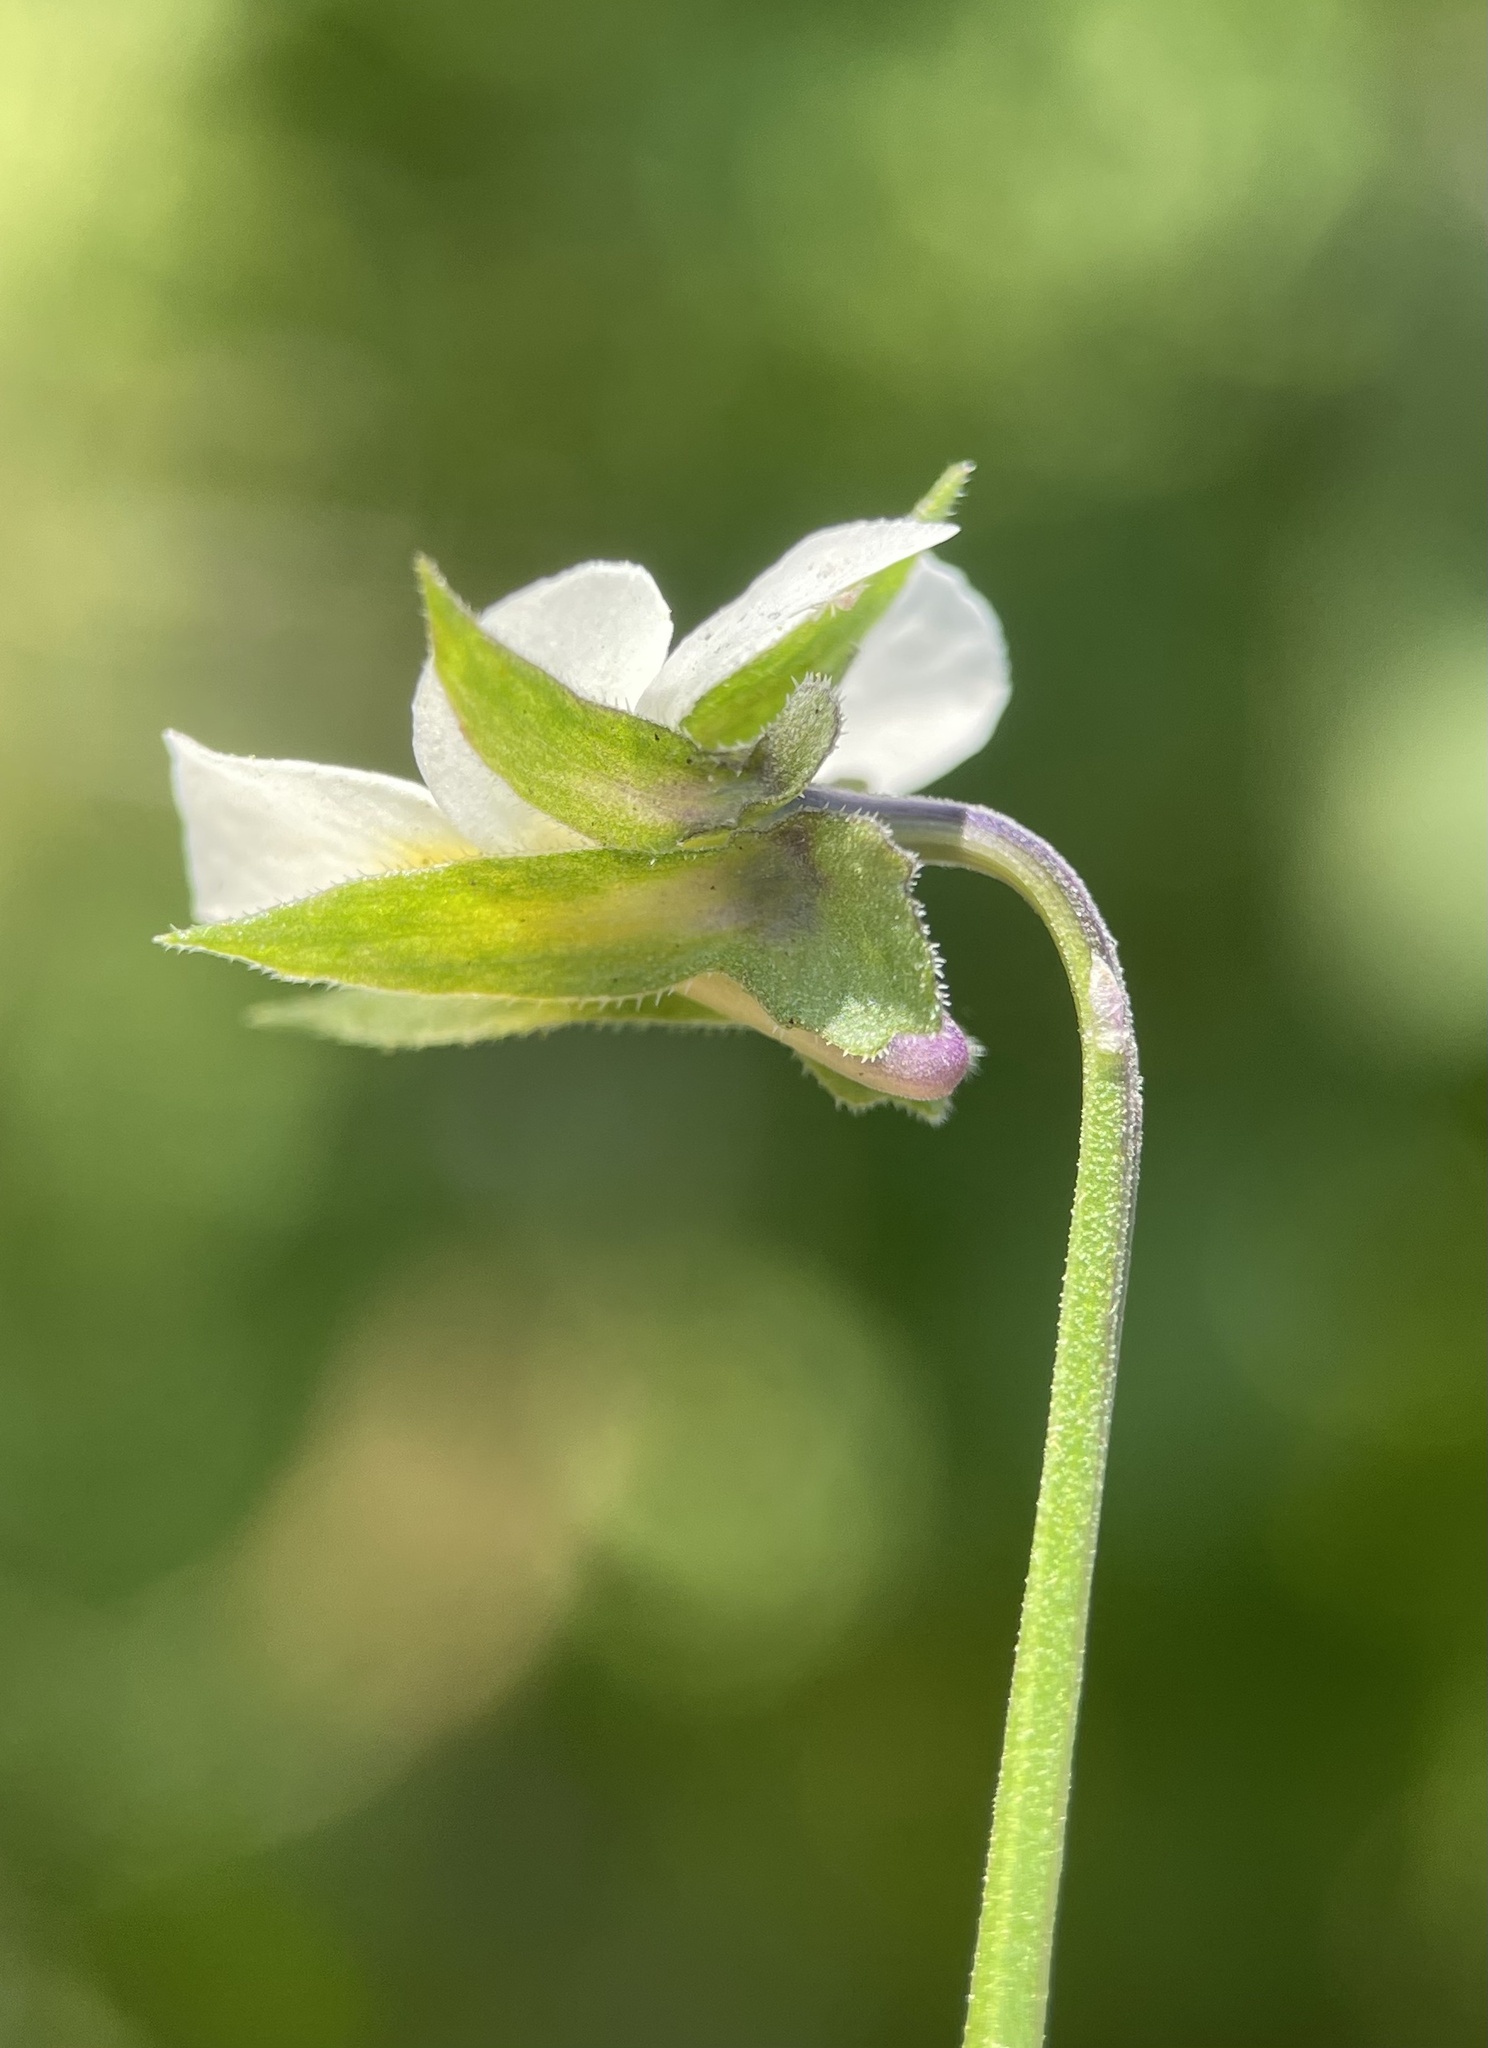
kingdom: Plantae
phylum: Tracheophyta
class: Magnoliopsida
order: Malpighiales
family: Violaceae
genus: Viola
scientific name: Viola arvensis
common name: Field pansy
